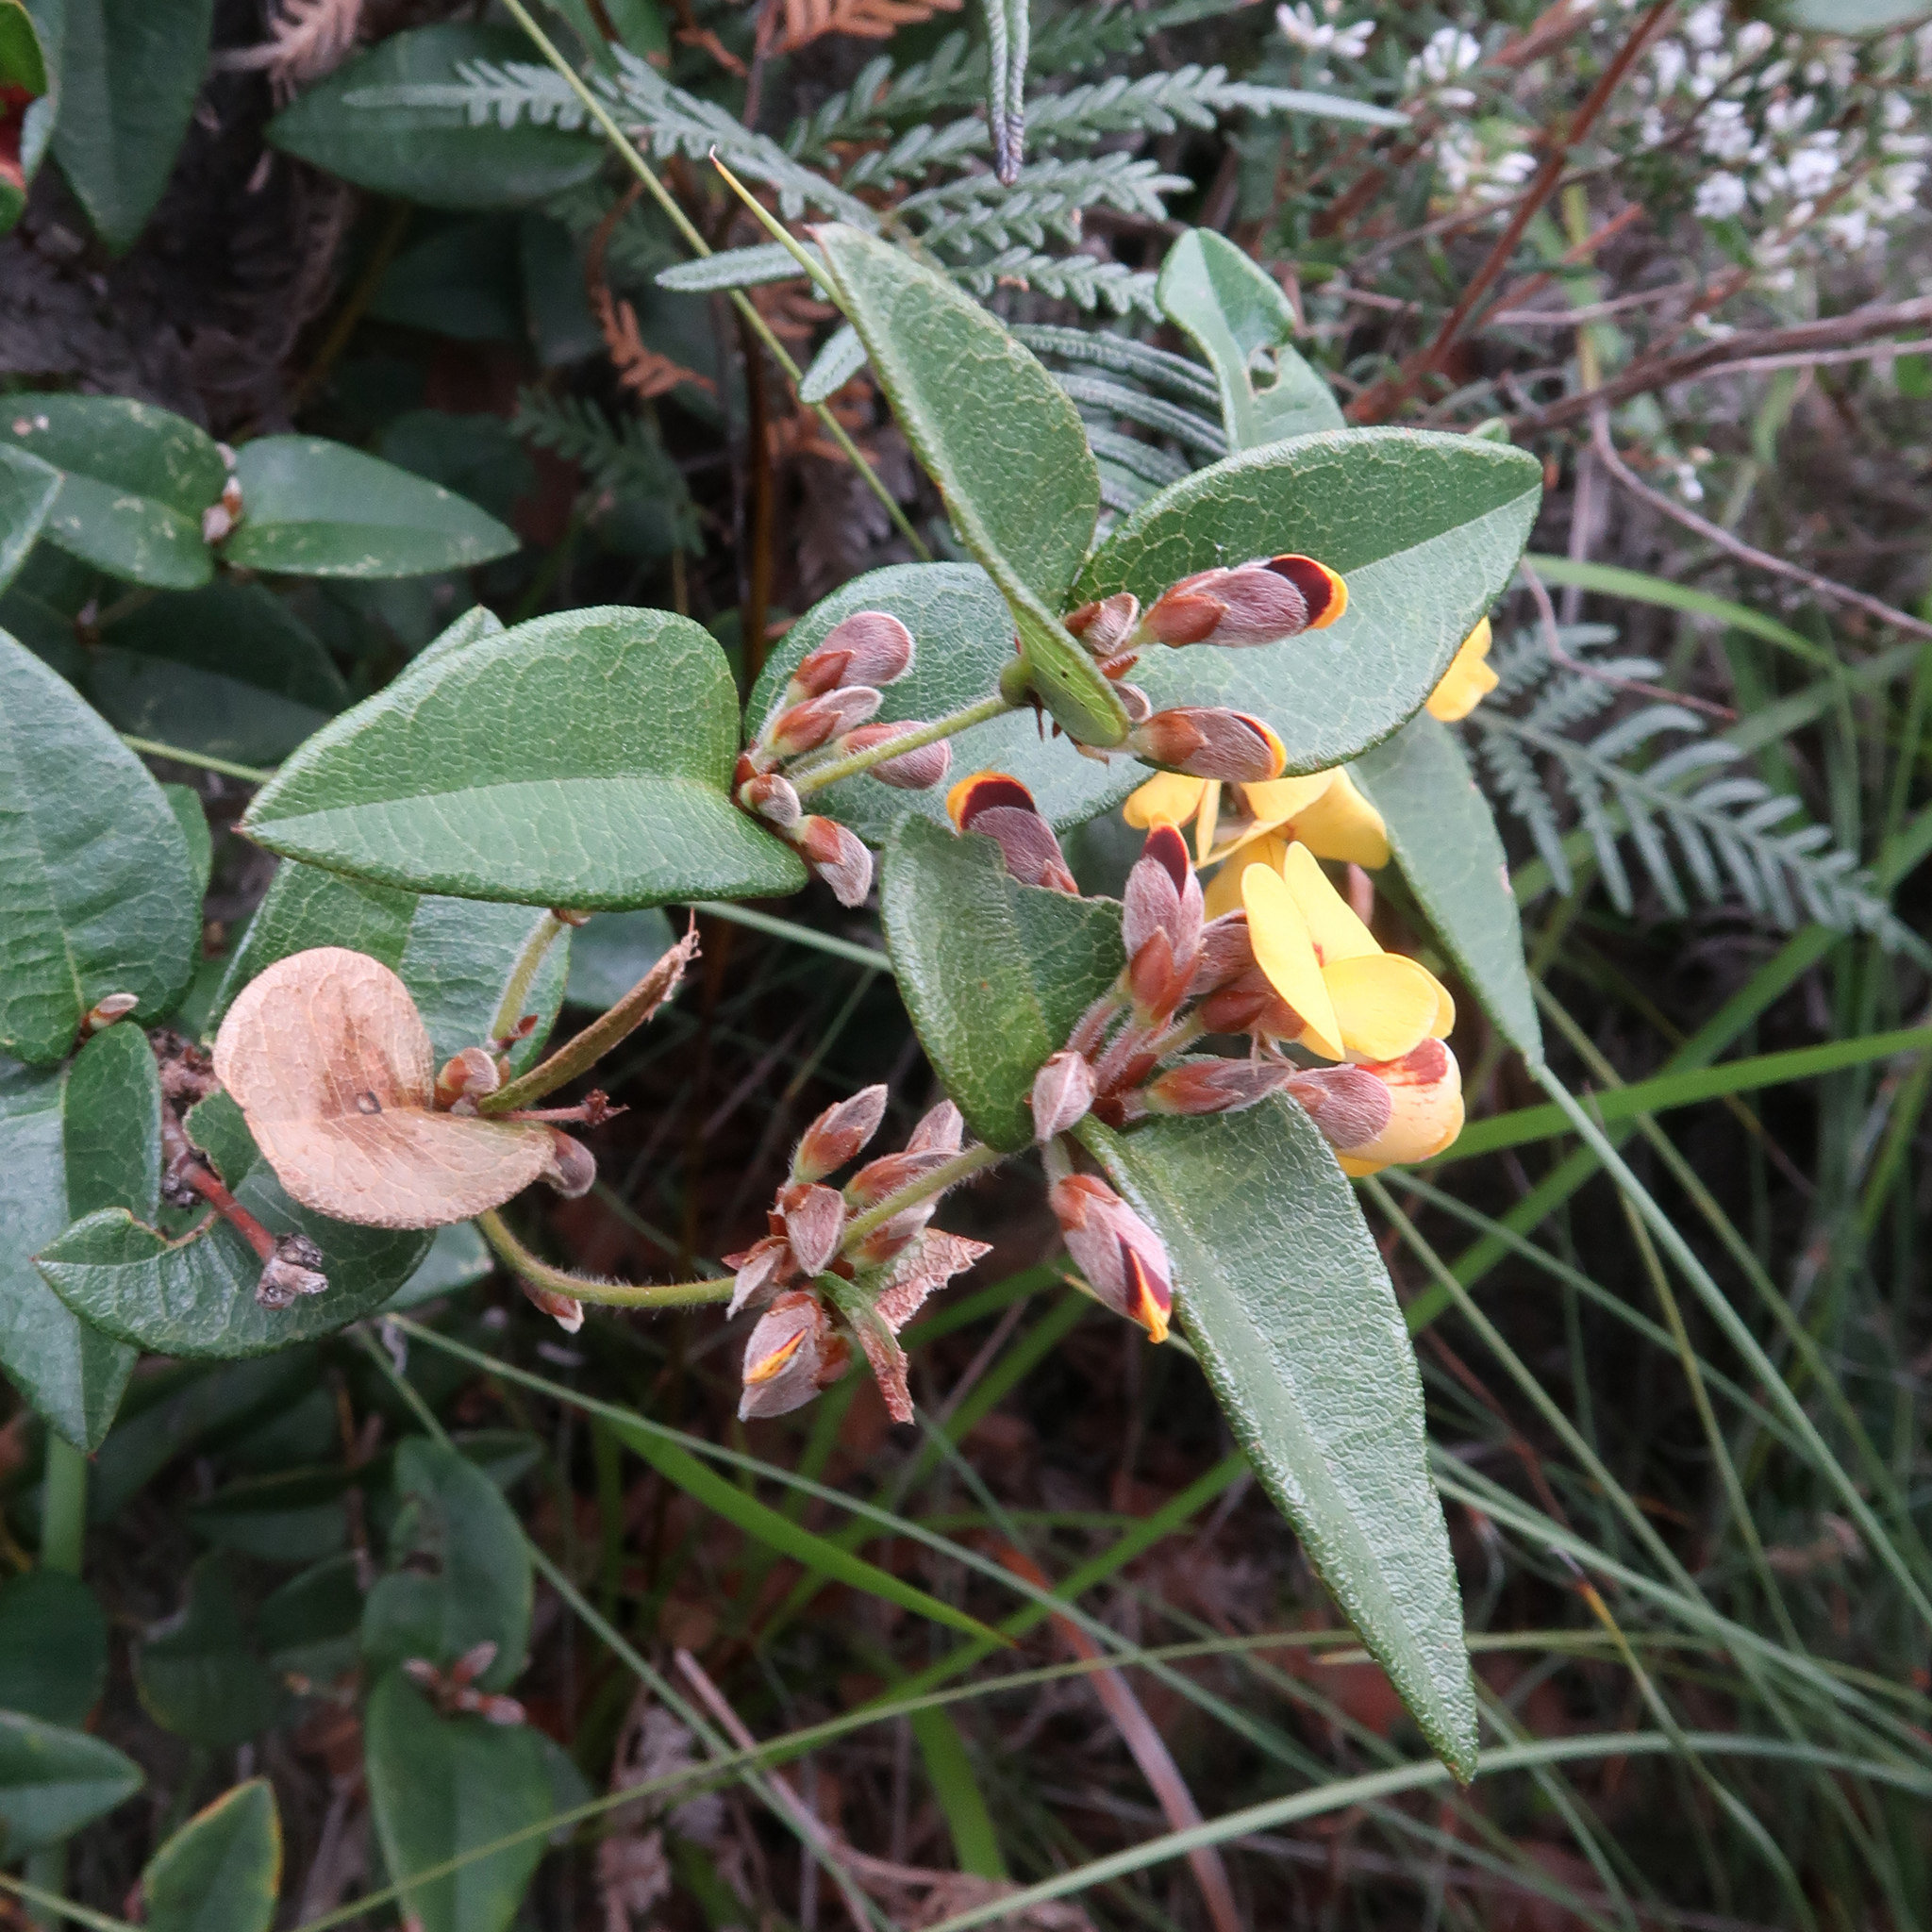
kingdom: Plantae
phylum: Tracheophyta
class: Magnoliopsida
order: Fabales
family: Fabaceae
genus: Platylobium
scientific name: Platylobium parviflorum
